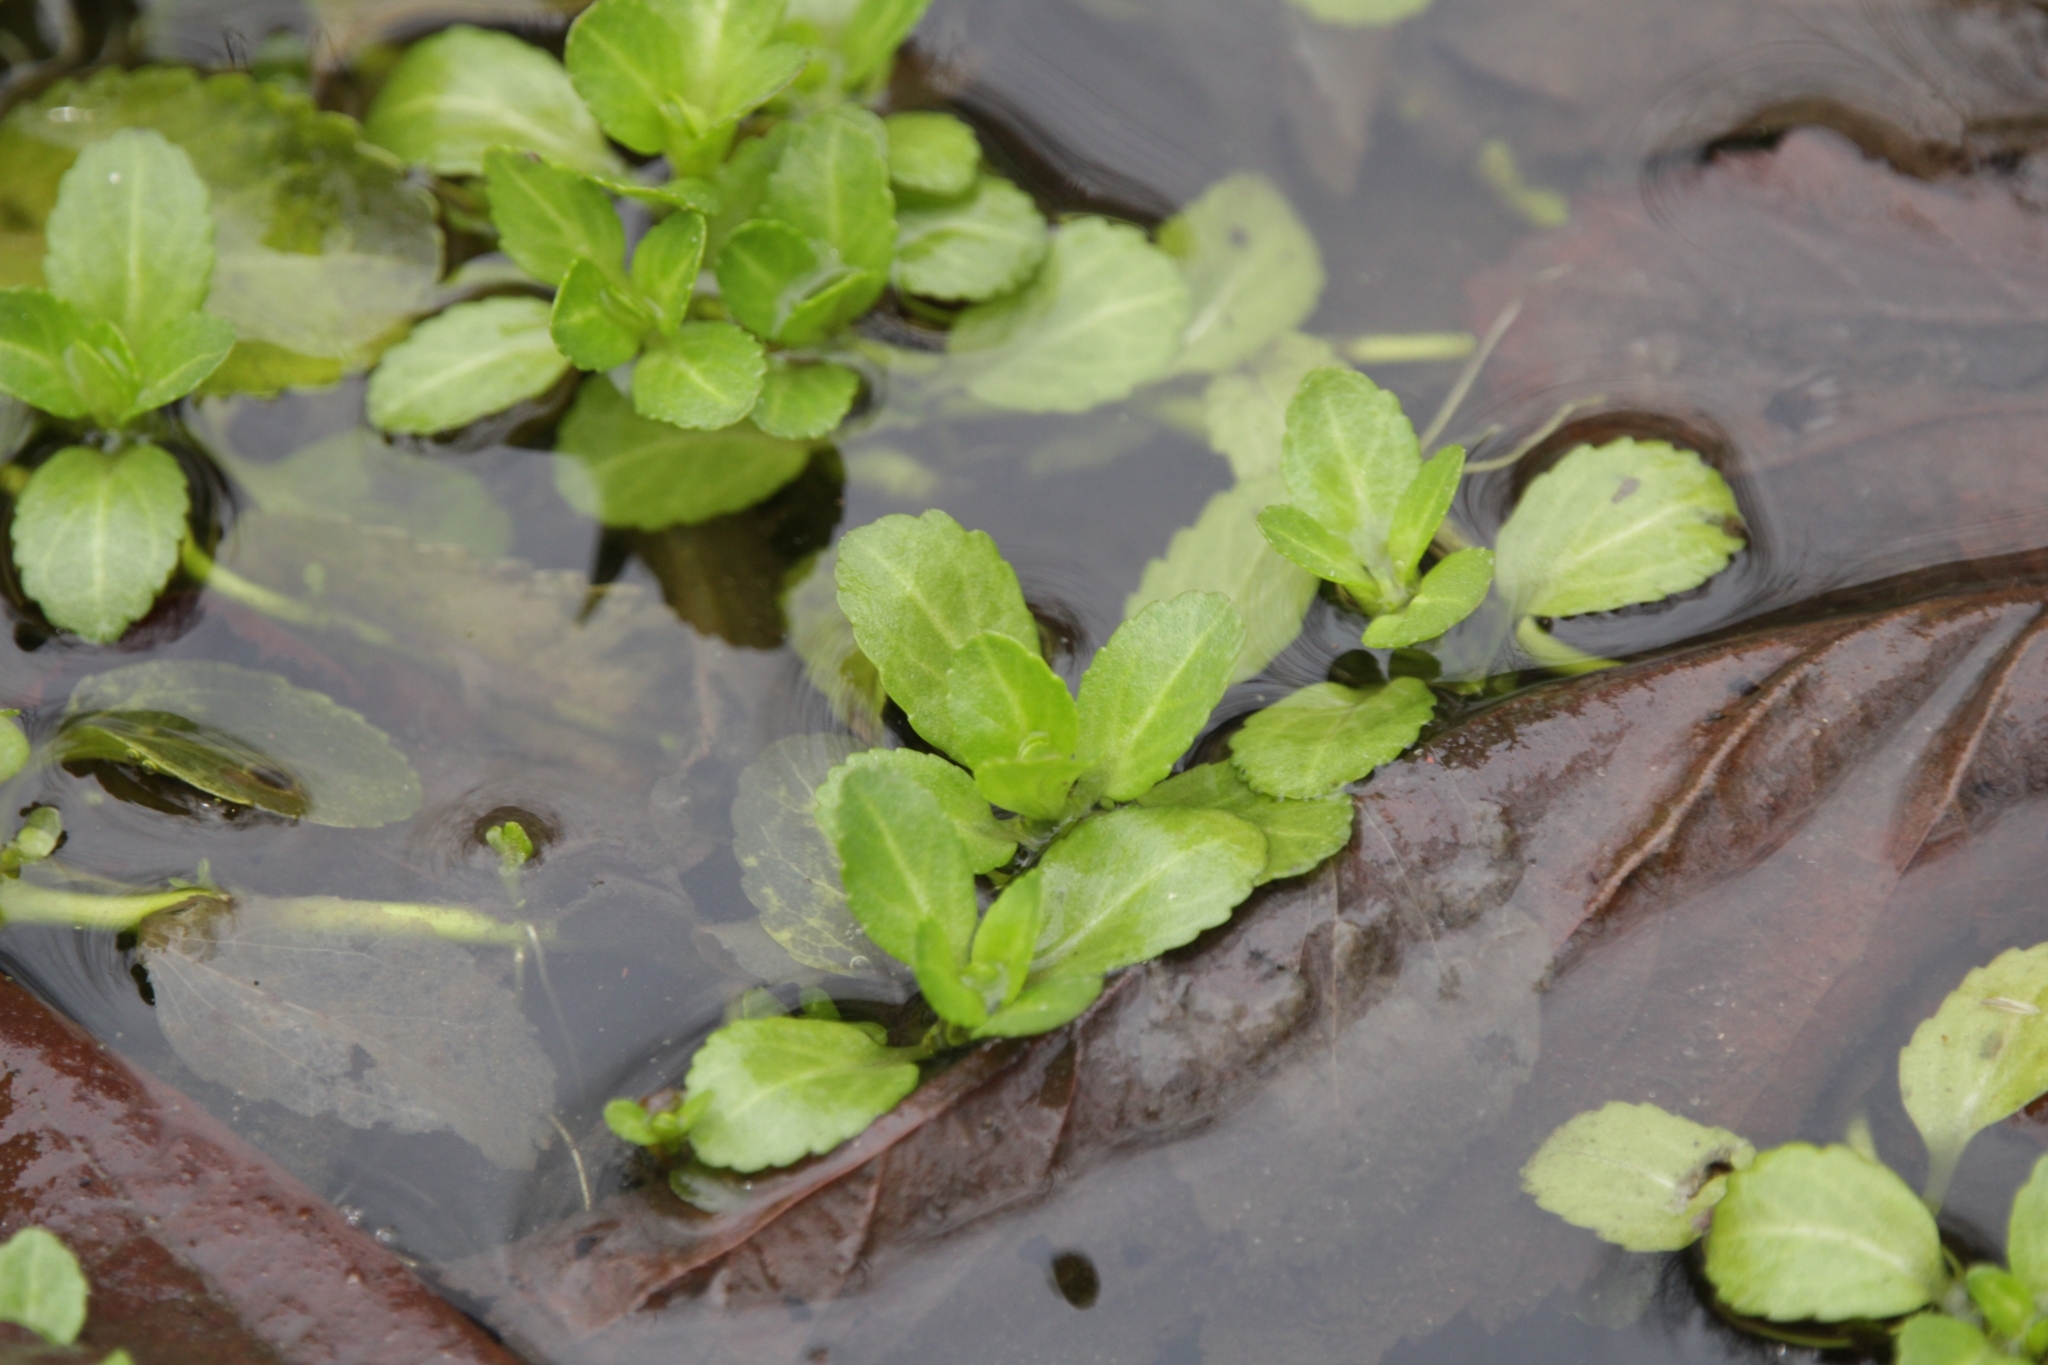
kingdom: Plantae
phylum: Tracheophyta
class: Magnoliopsida
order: Lamiales
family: Plantaginaceae
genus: Veronica
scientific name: Veronica beccabunga
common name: Brooklime
